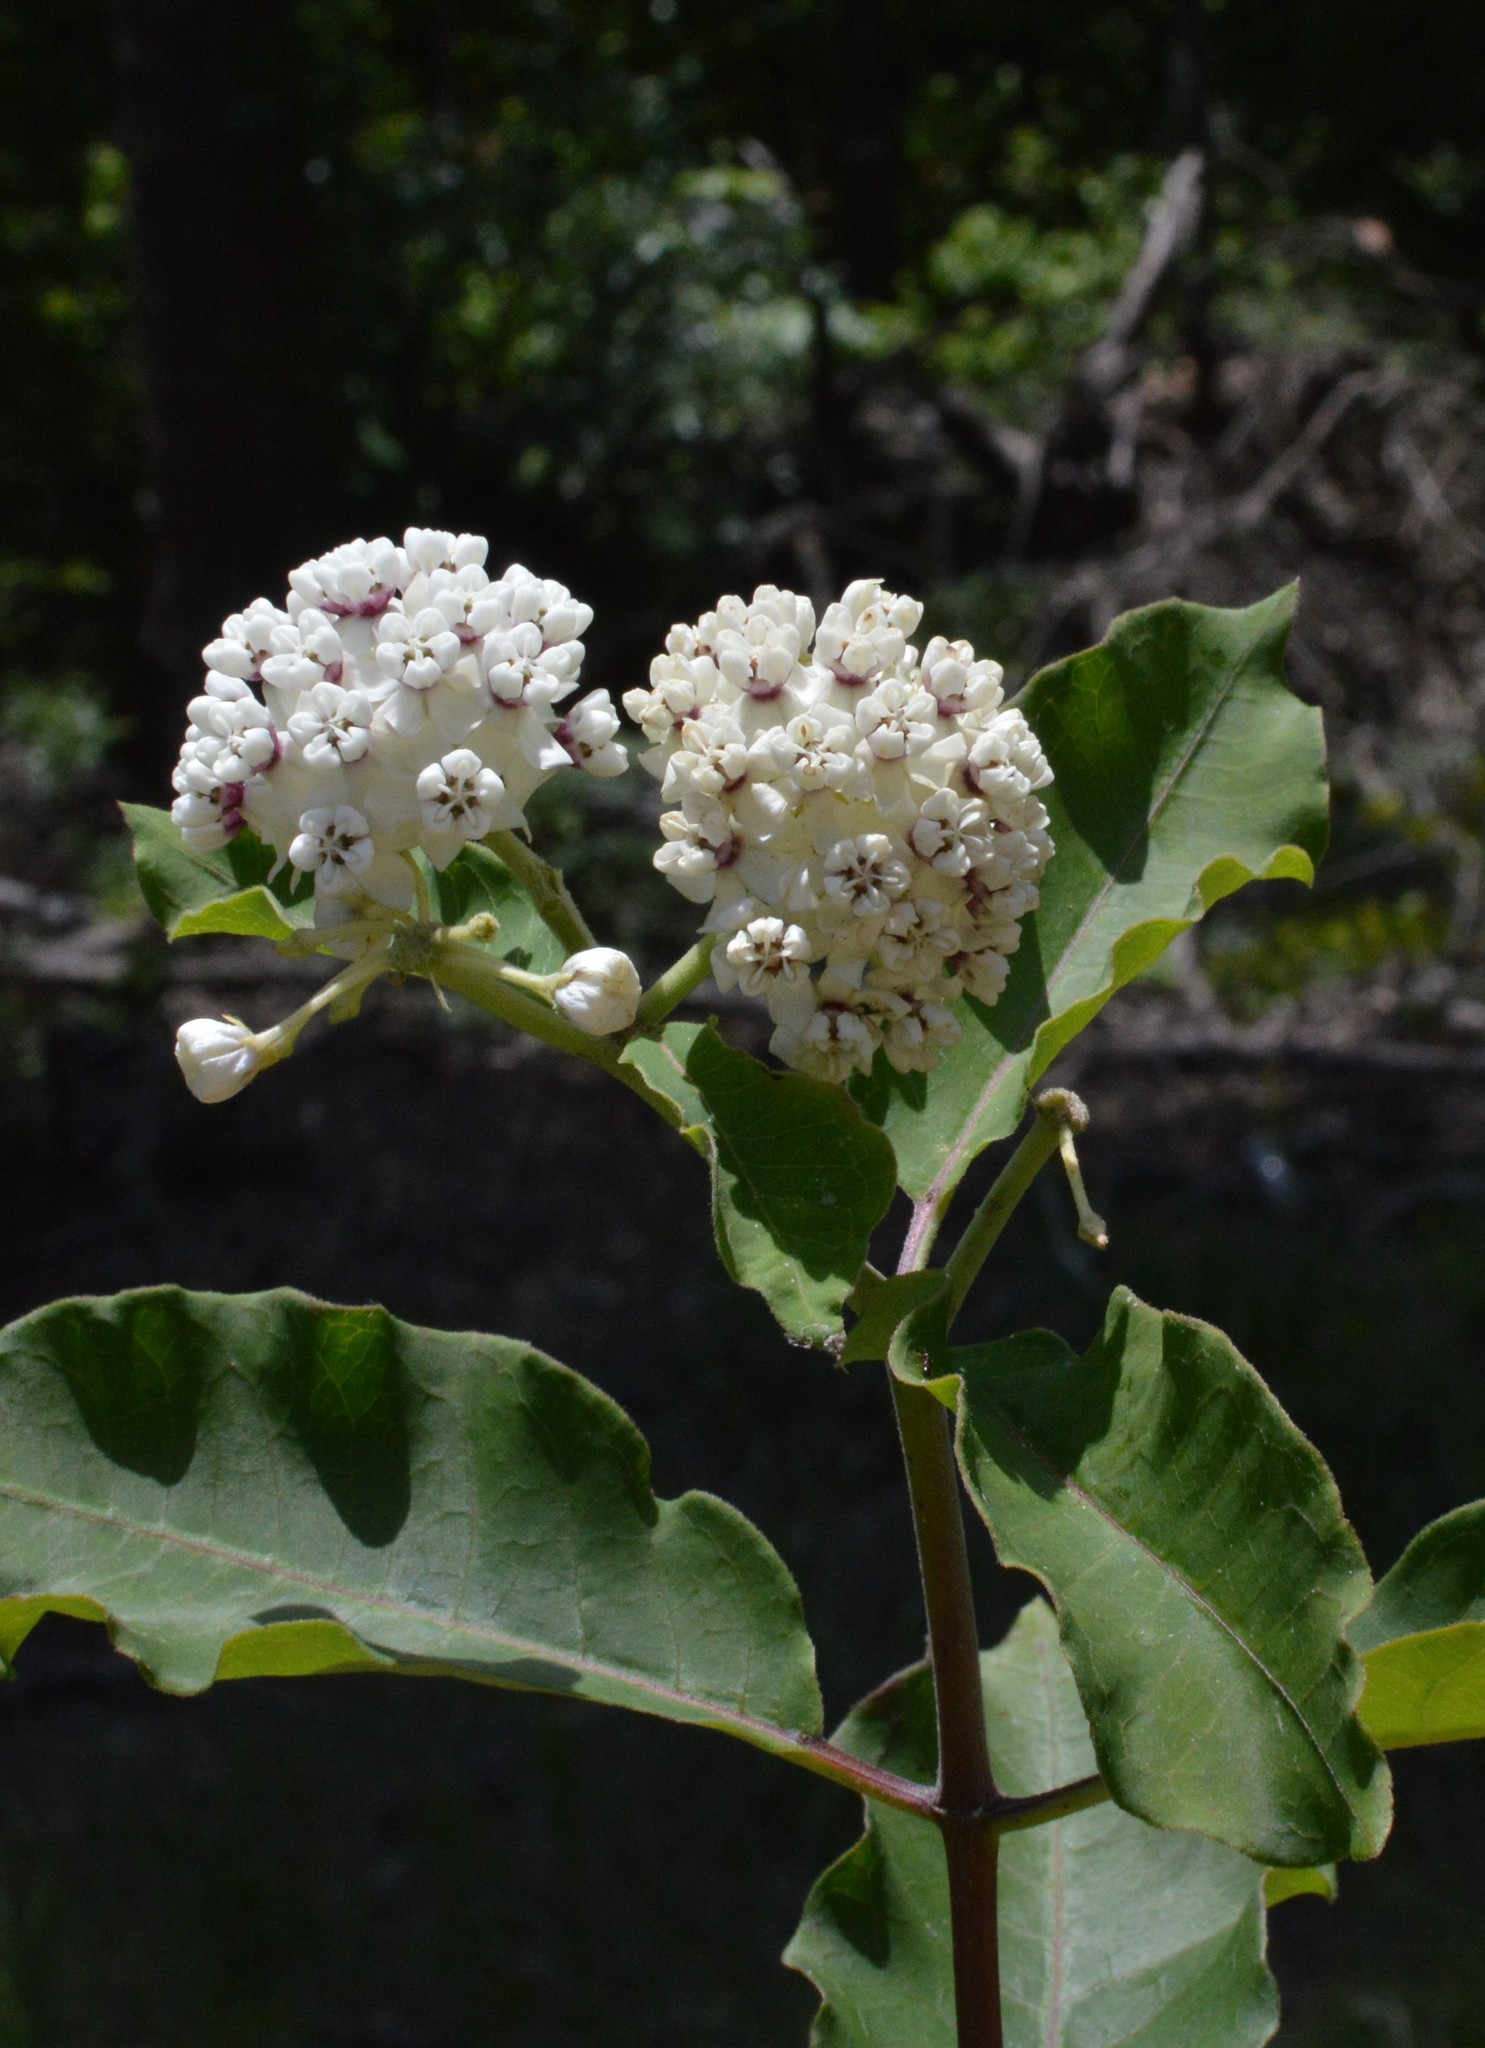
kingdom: Plantae
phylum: Tracheophyta
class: Magnoliopsida
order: Gentianales
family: Apocynaceae
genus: Asclepias
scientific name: Asclepias variegata
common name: Variegated milkweed
